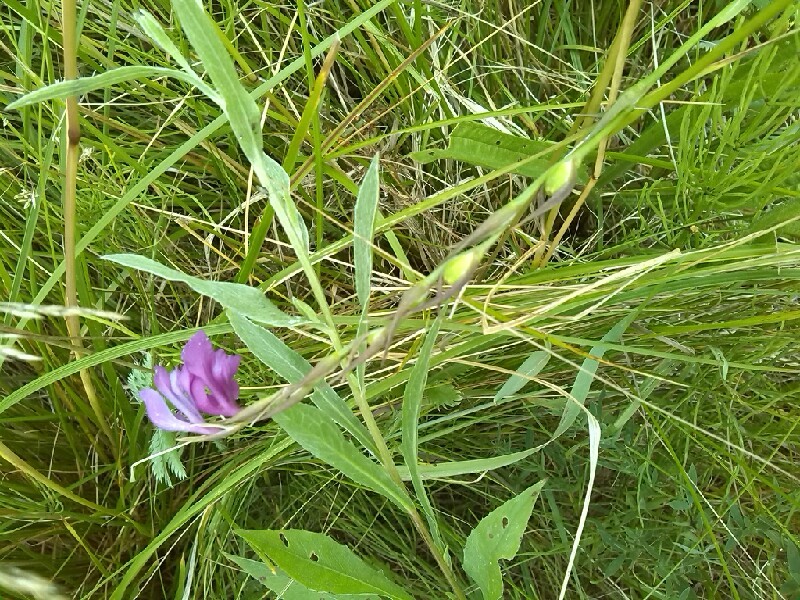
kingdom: Plantae
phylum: Tracheophyta
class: Liliopsida
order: Asparagales
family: Iridaceae
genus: Gladiolus
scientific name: Gladiolus imbricatus
